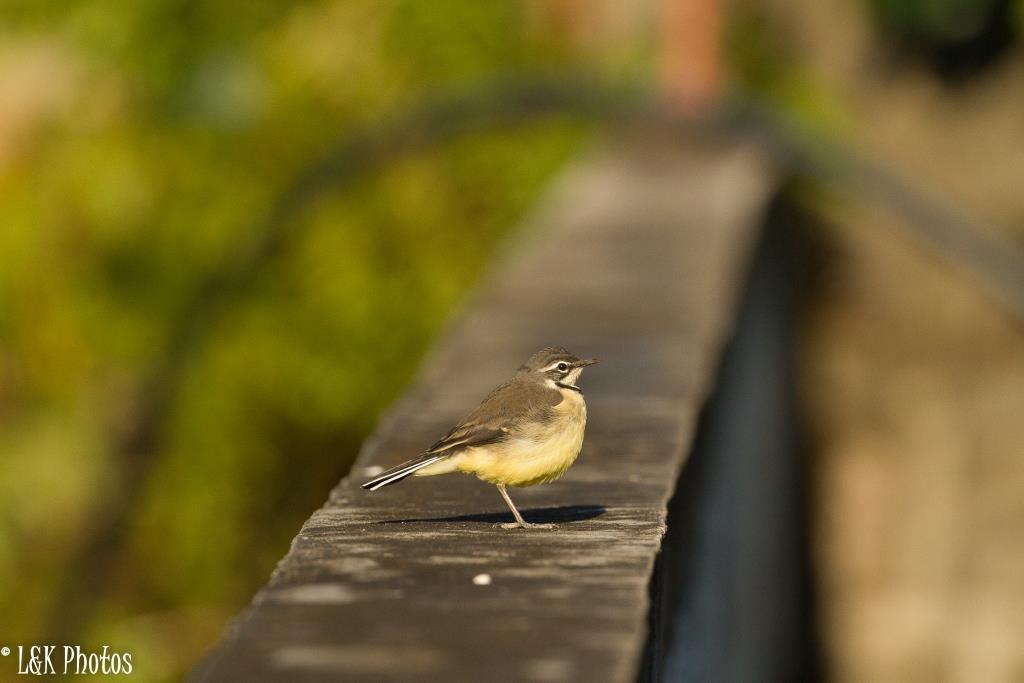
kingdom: Animalia
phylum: Chordata
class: Aves
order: Passeriformes
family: Motacillidae
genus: Motacilla
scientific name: Motacilla flaviventris
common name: Madagascar wagtail
